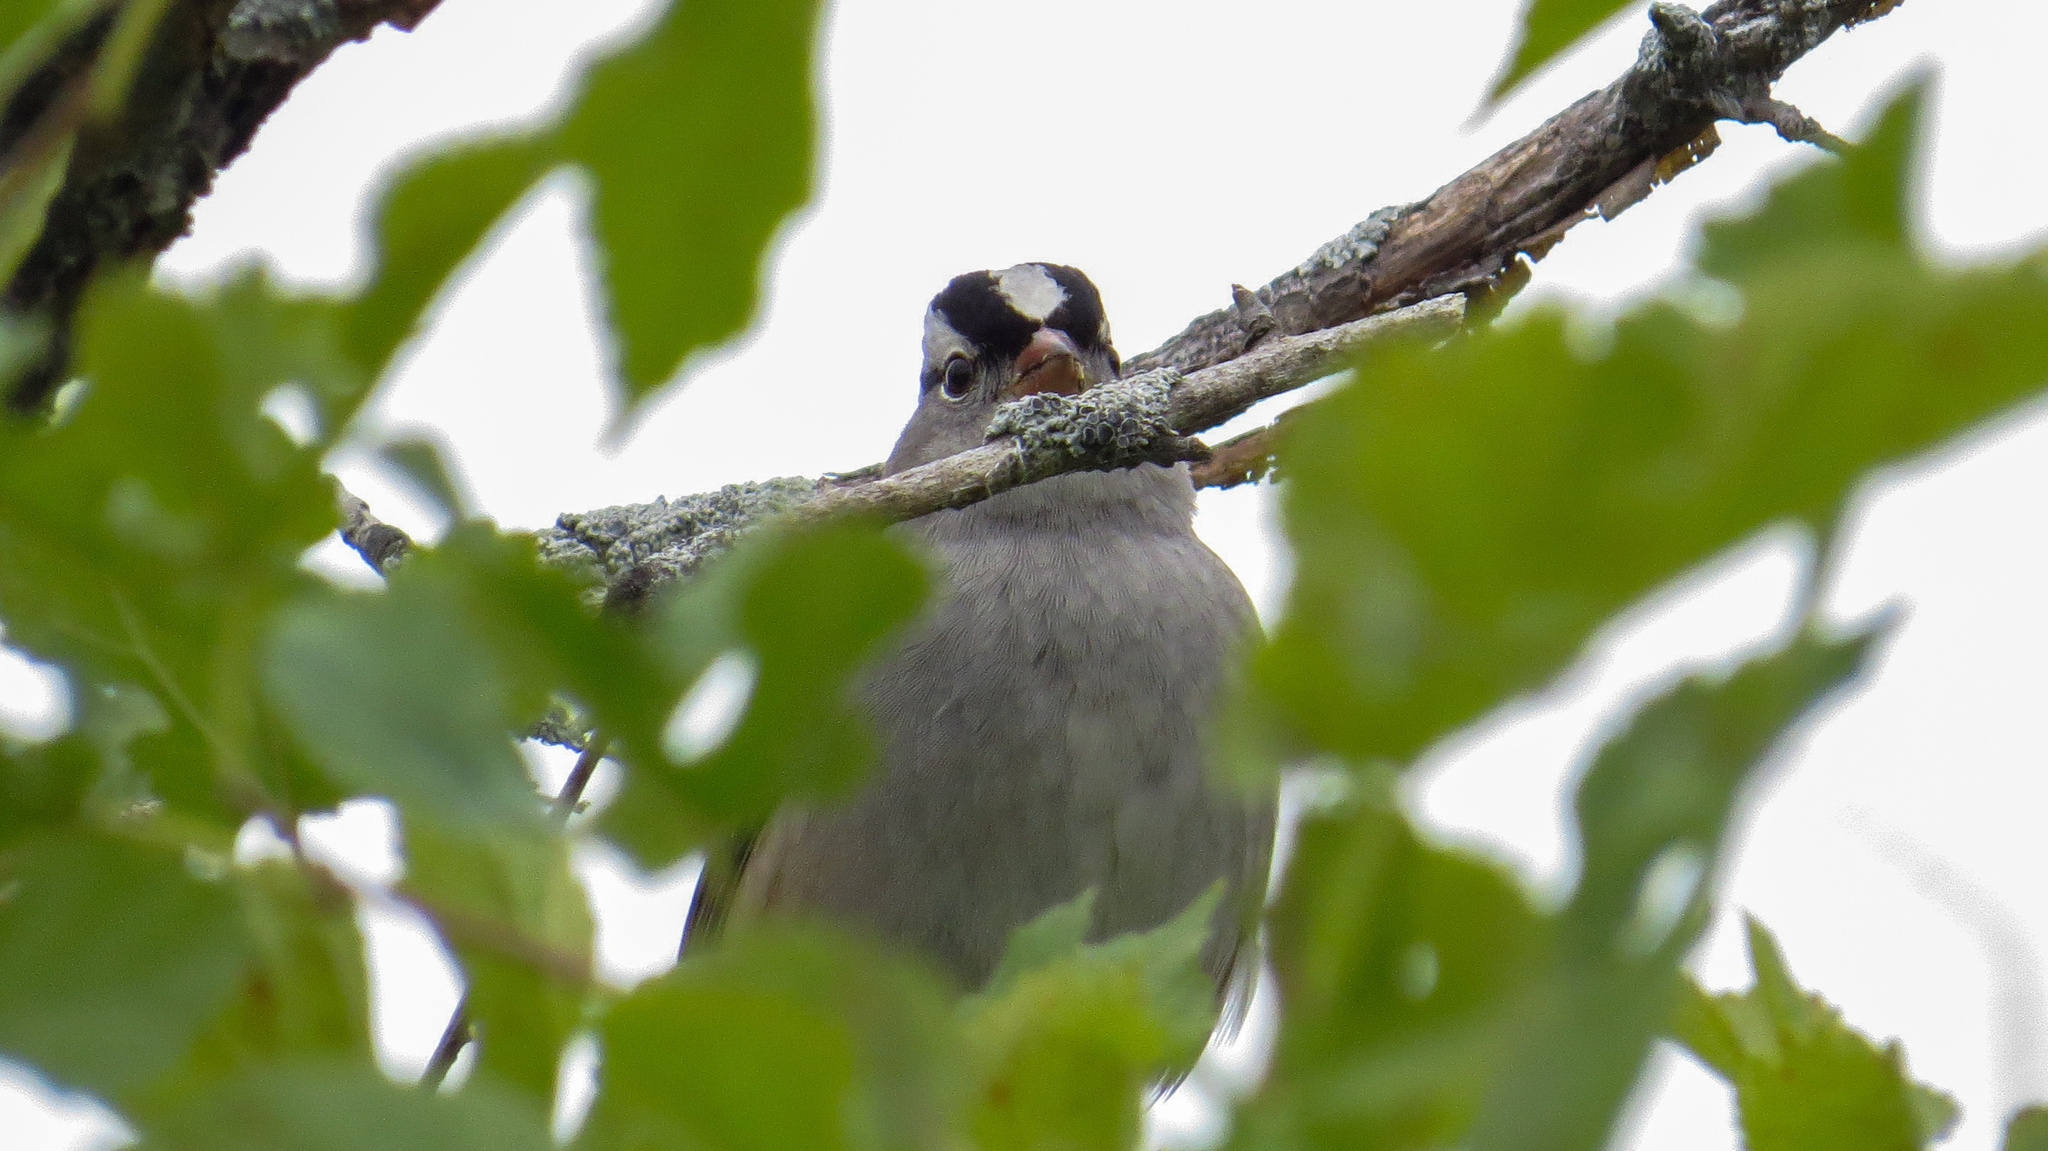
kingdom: Animalia
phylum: Chordata
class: Aves
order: Passeriformes
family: Passerellidae
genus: Zonotrichia
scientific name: Zonotrichia leucophrys
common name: White-crowned sparrow
